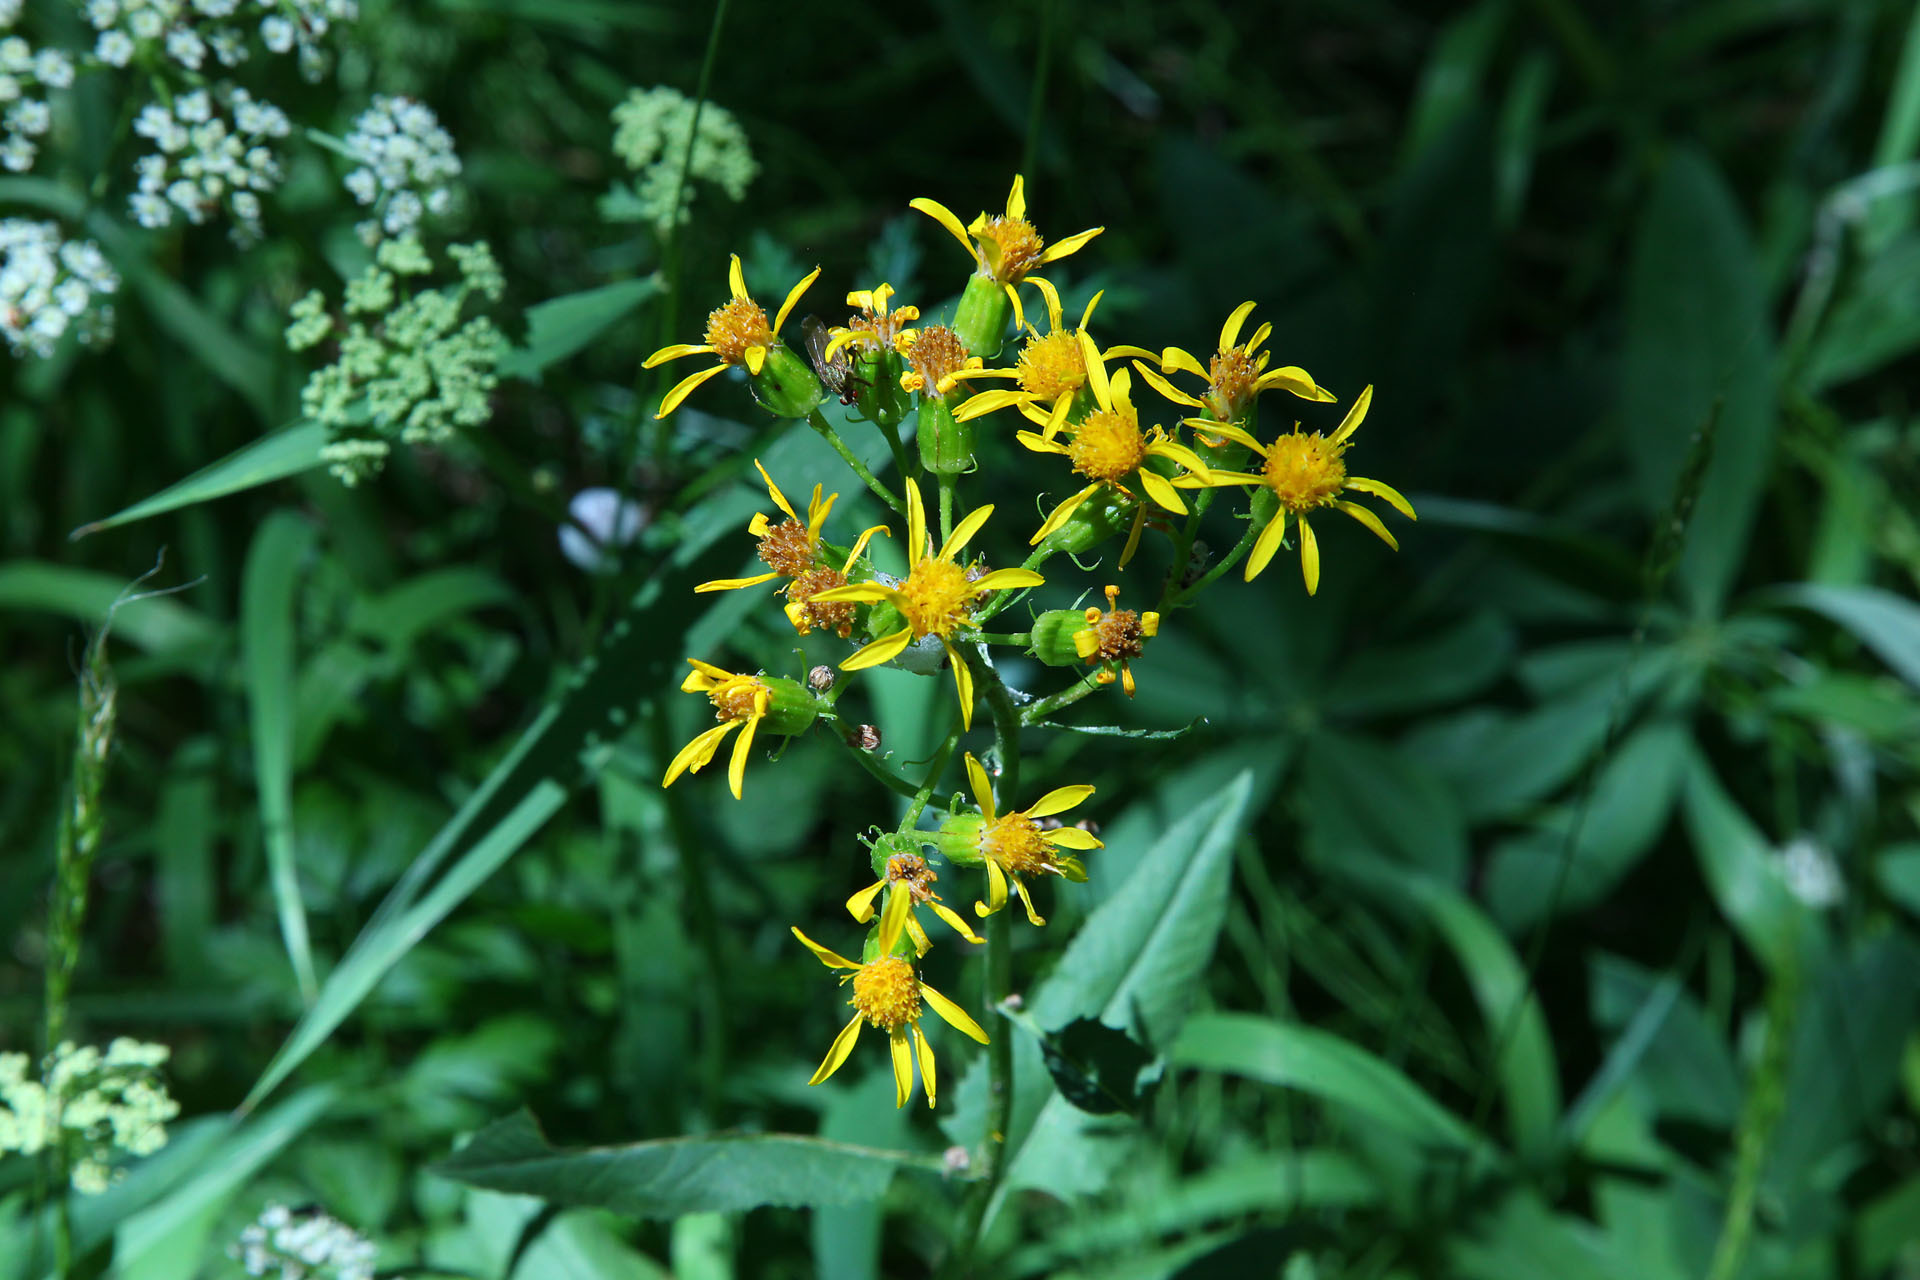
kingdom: Plantae
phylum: Tracheophyta
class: Magnoliopsida
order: Asterales
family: Asteraceae
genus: Senecio
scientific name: Senecio triangularis
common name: Arrowleaf butterweed
